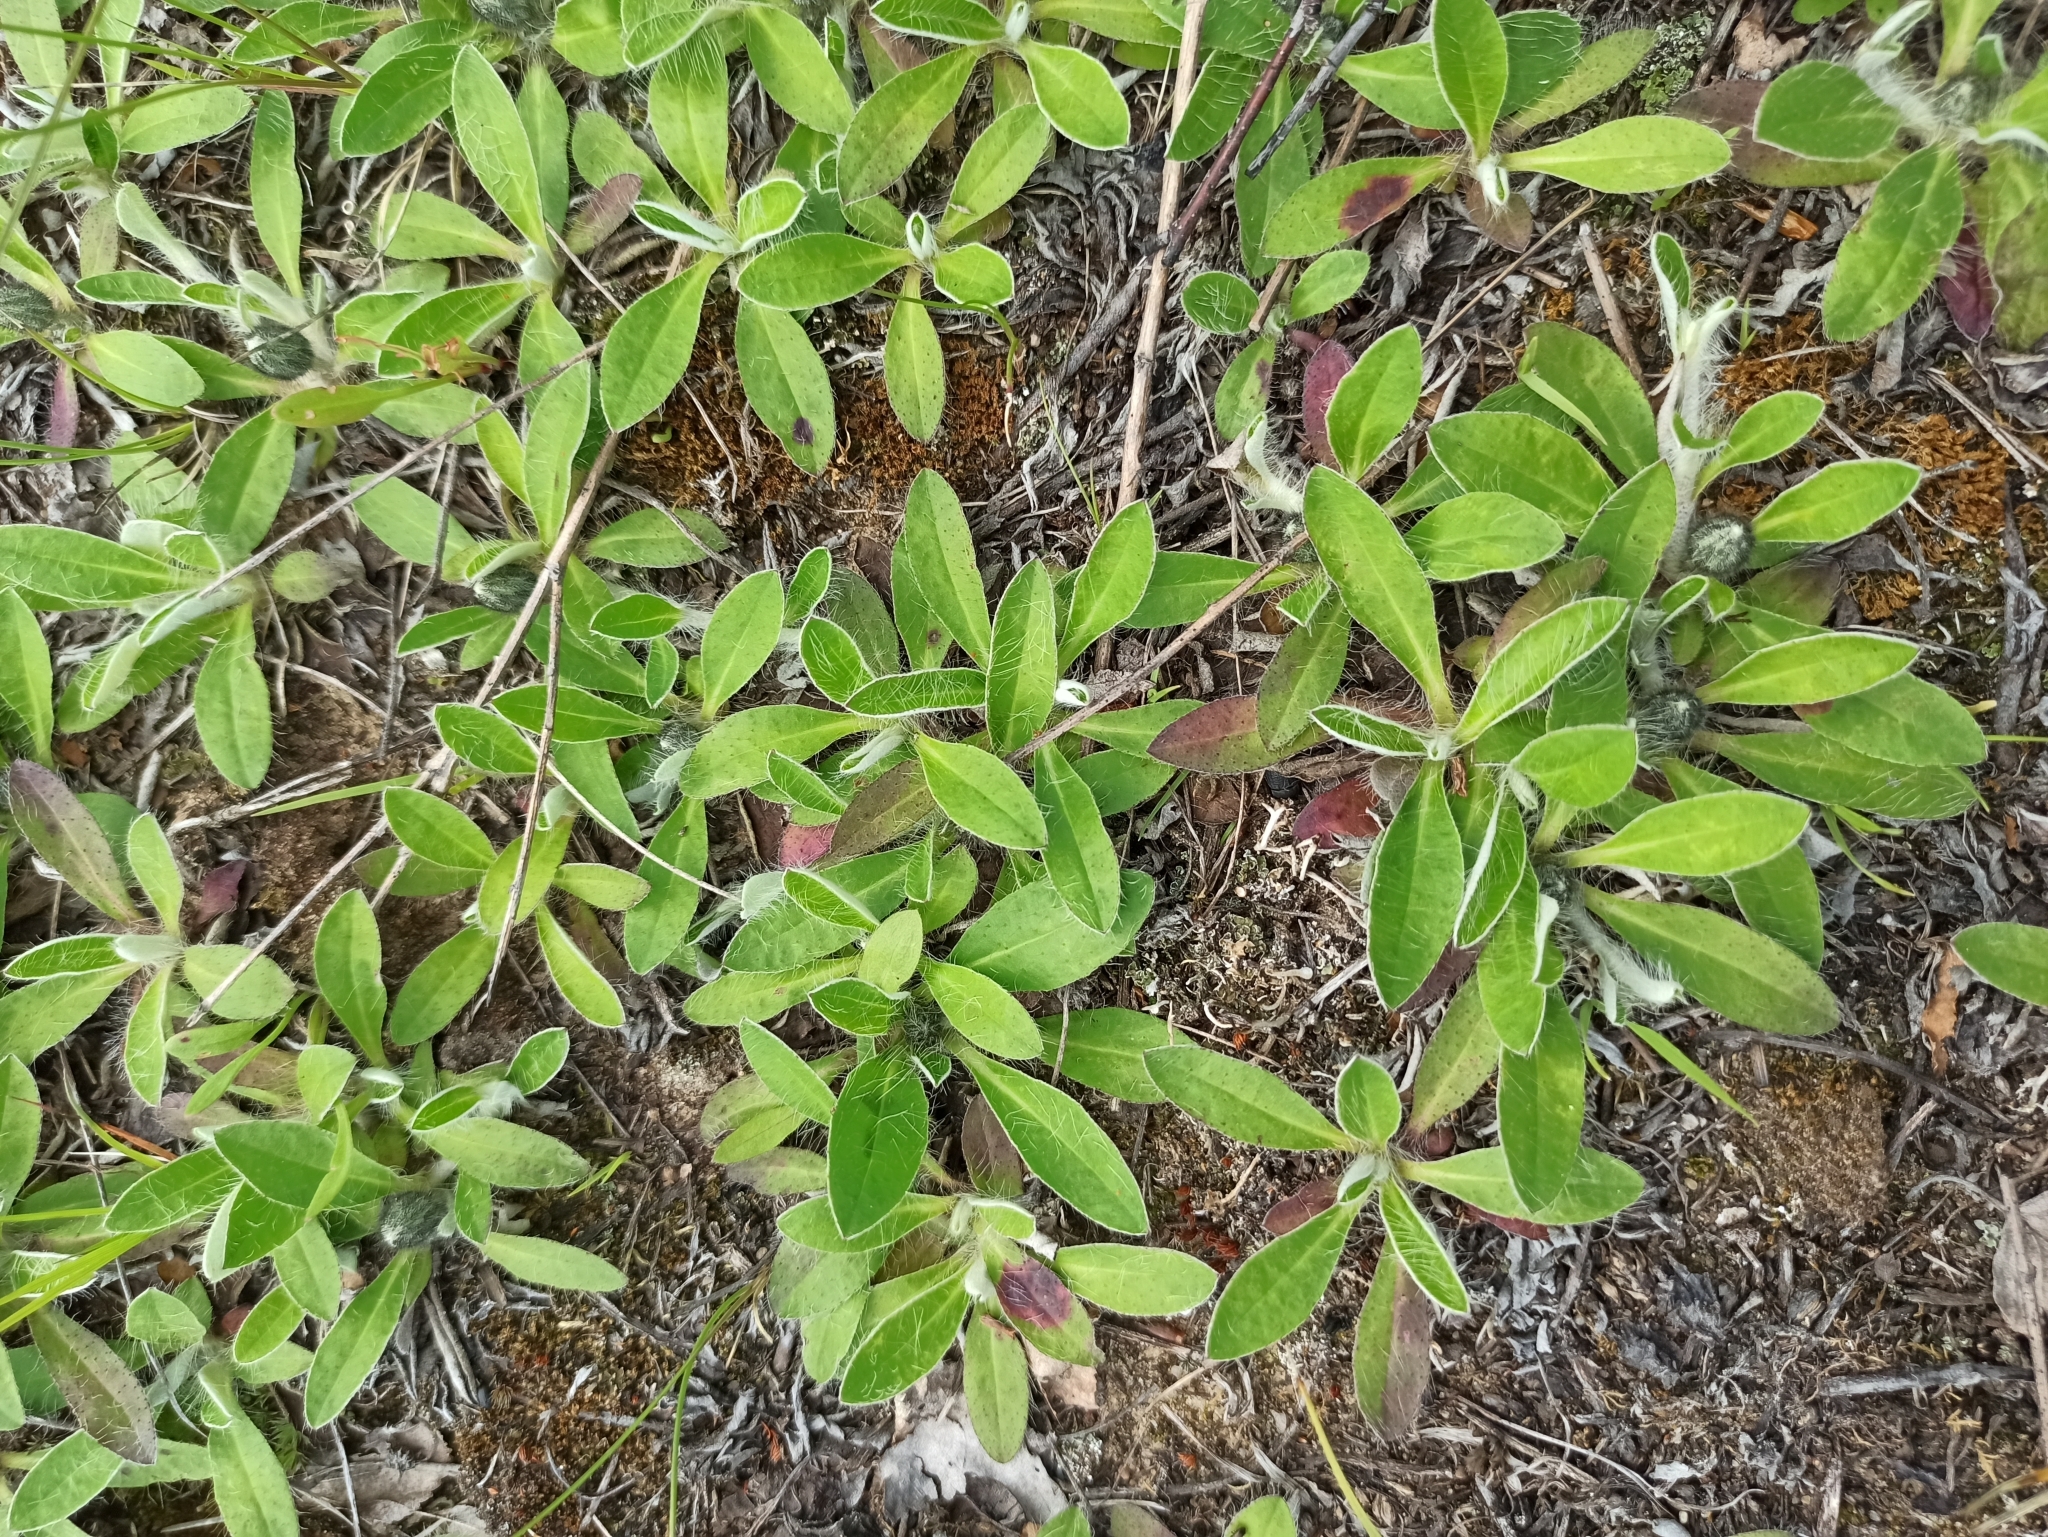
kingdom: Plantae
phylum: Tracheophyta
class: Magnoliopsida
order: Asterales
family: Asteraceae
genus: Pilosella
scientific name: Pilosella officinarum
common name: Mouse-ear hawkweed
